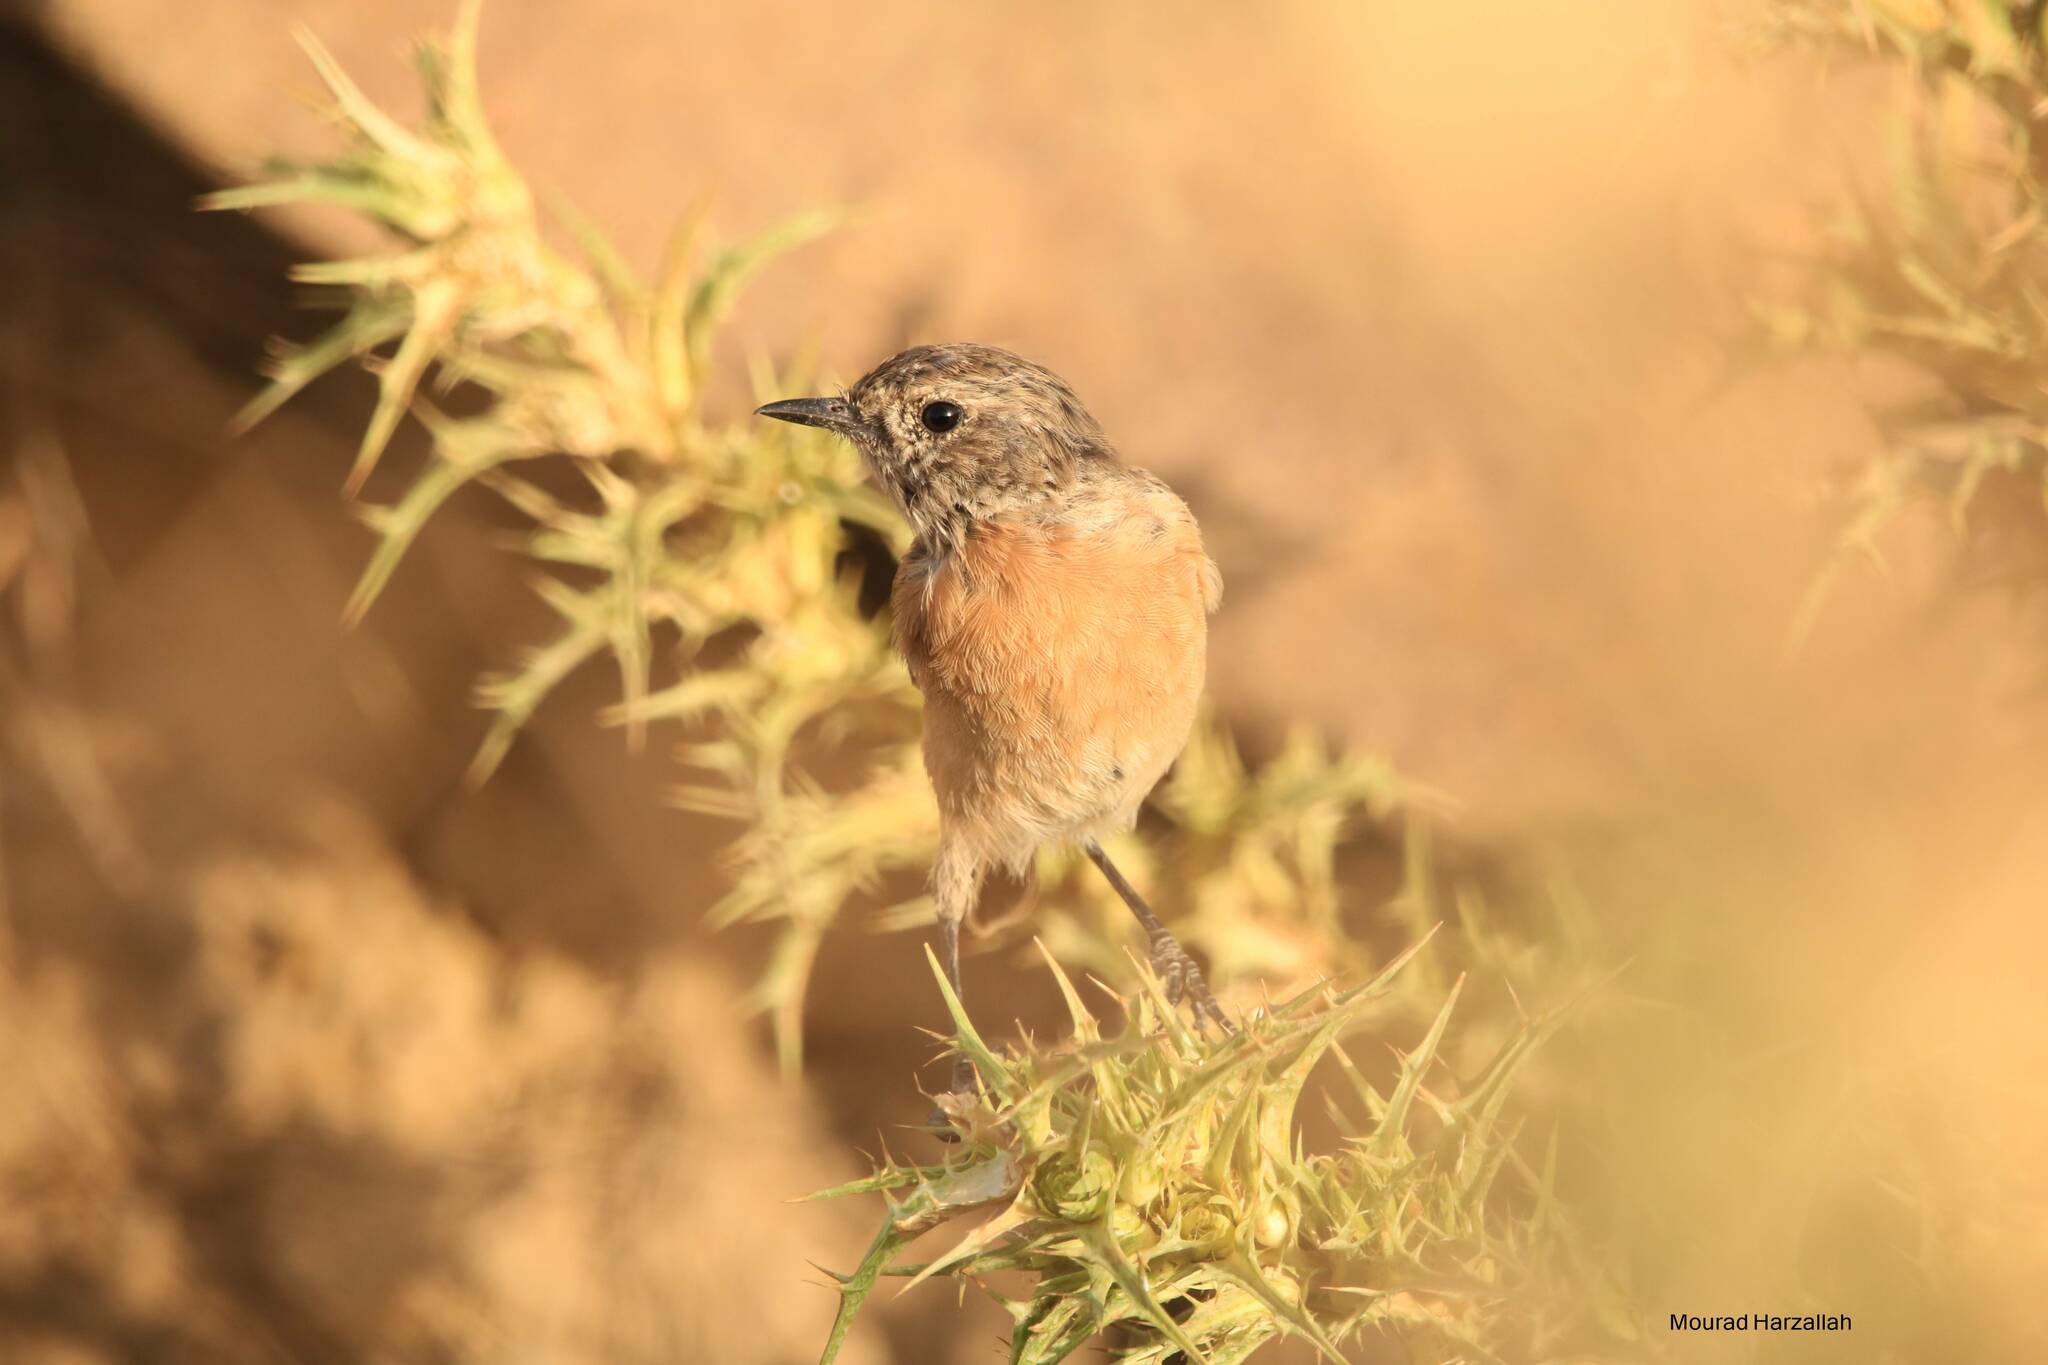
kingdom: Animalia
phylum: Chordata
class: Aves
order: Passeriformes
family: Muscicapidae
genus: Saxicola
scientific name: Saxicola rubicola
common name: European stonechat
